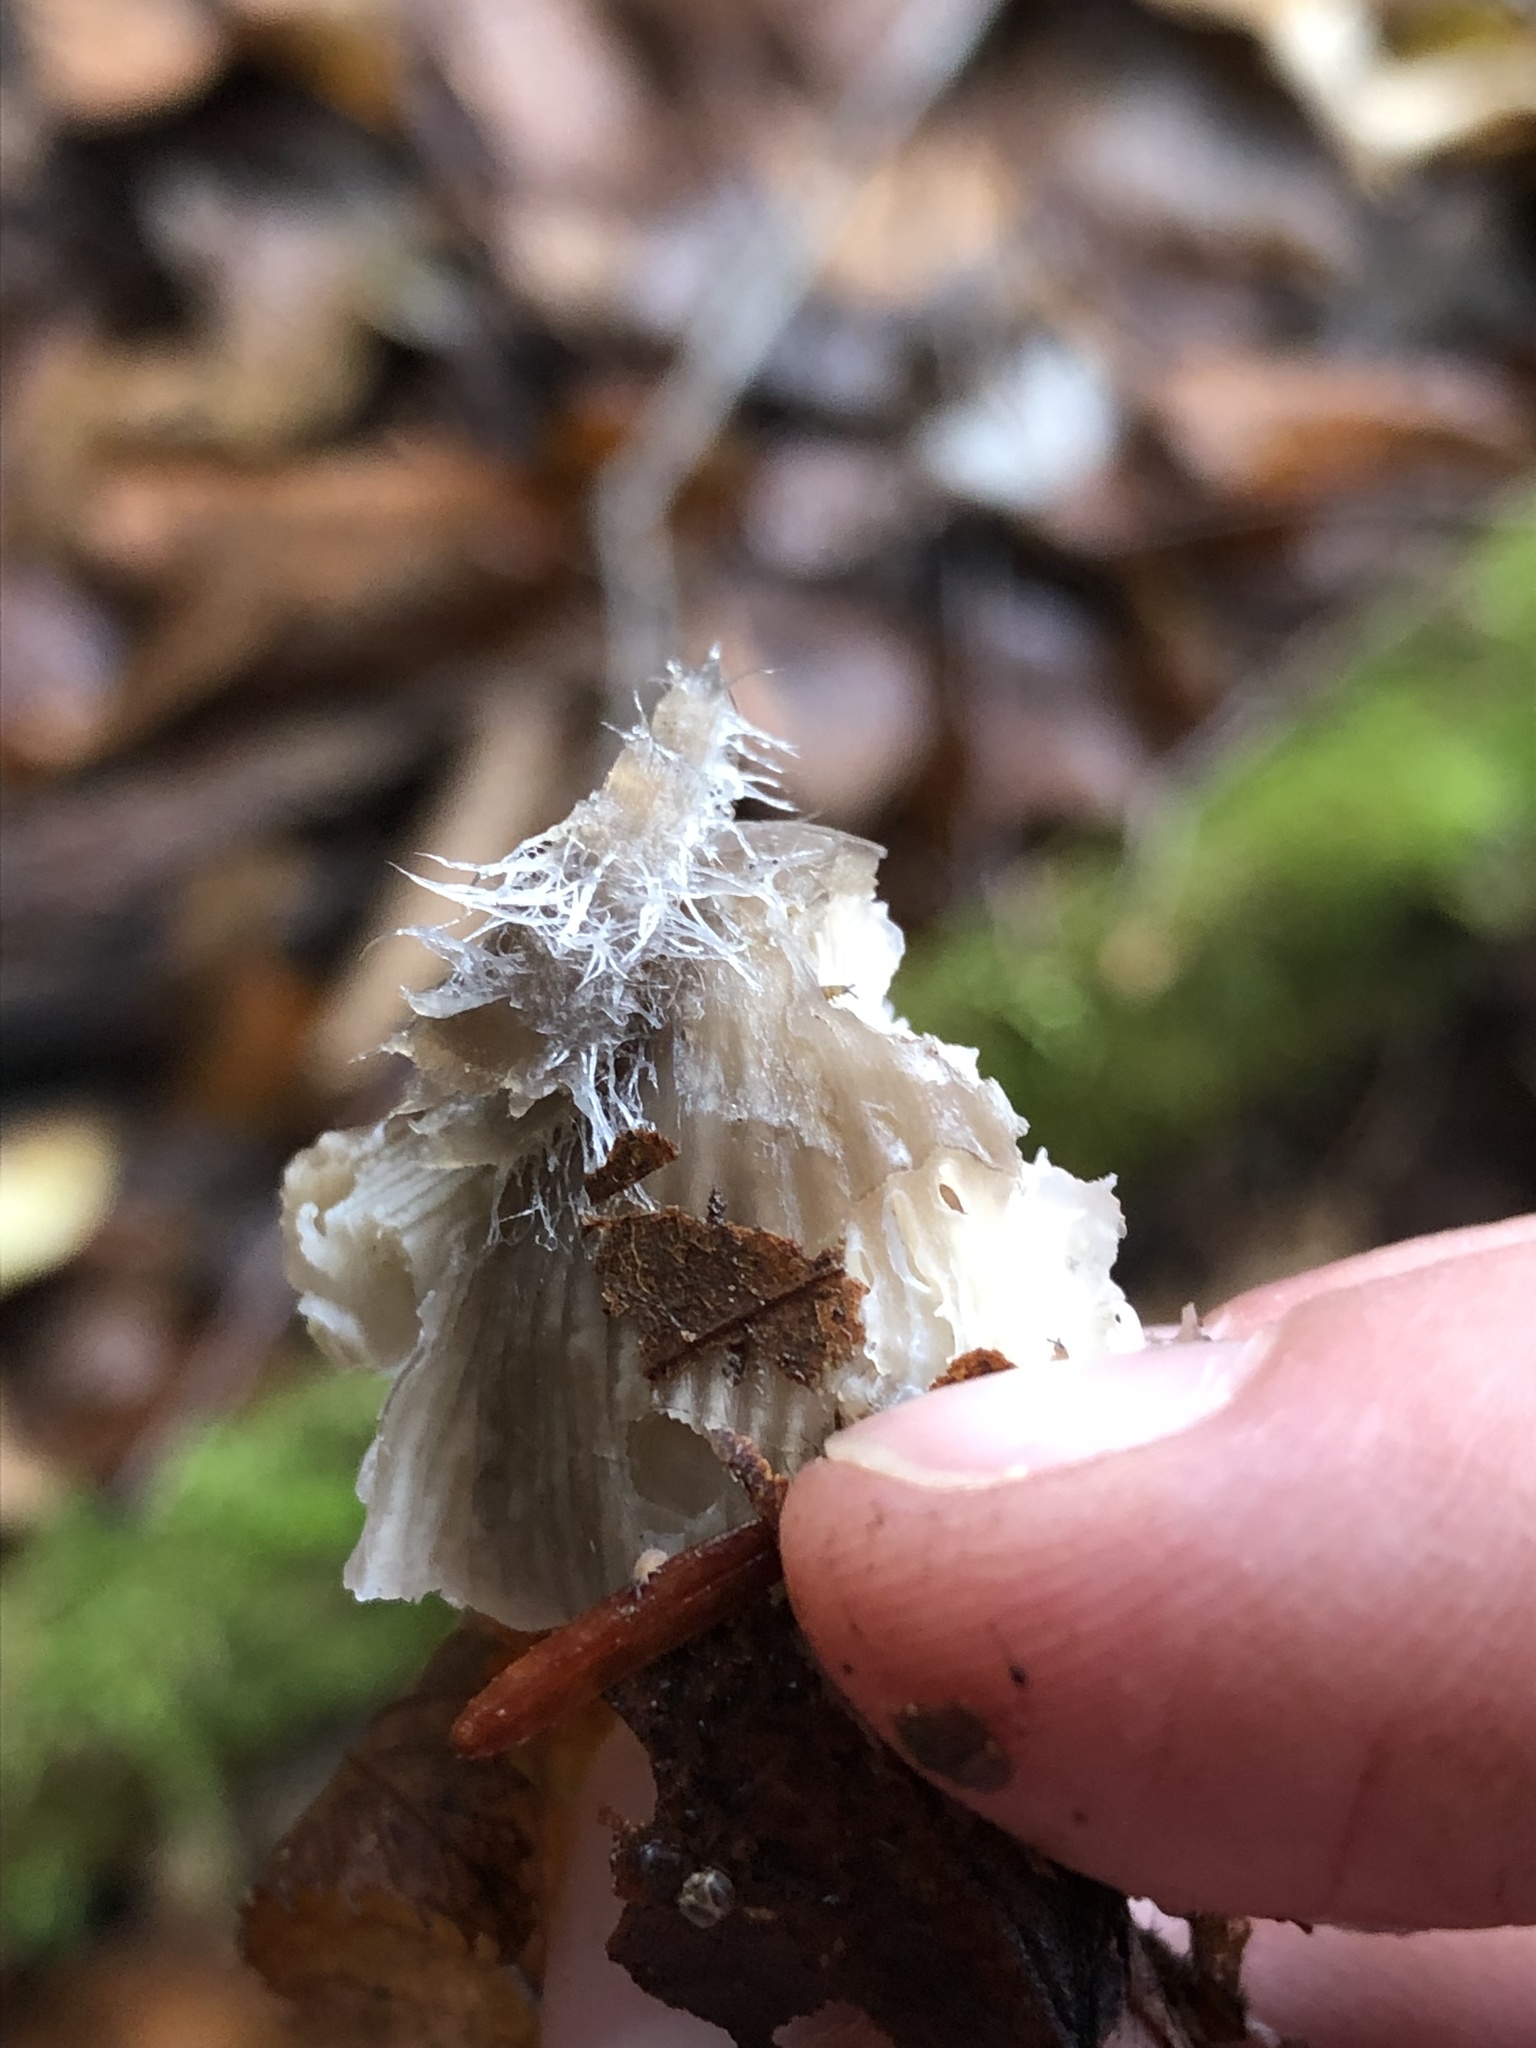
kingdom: Fungi
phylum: Mucoromycota
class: Mucoromycetes
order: Mucorales
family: Phycomycetaceae
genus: Spinellus
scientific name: Spinellus fusiger
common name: Bonnet mould
